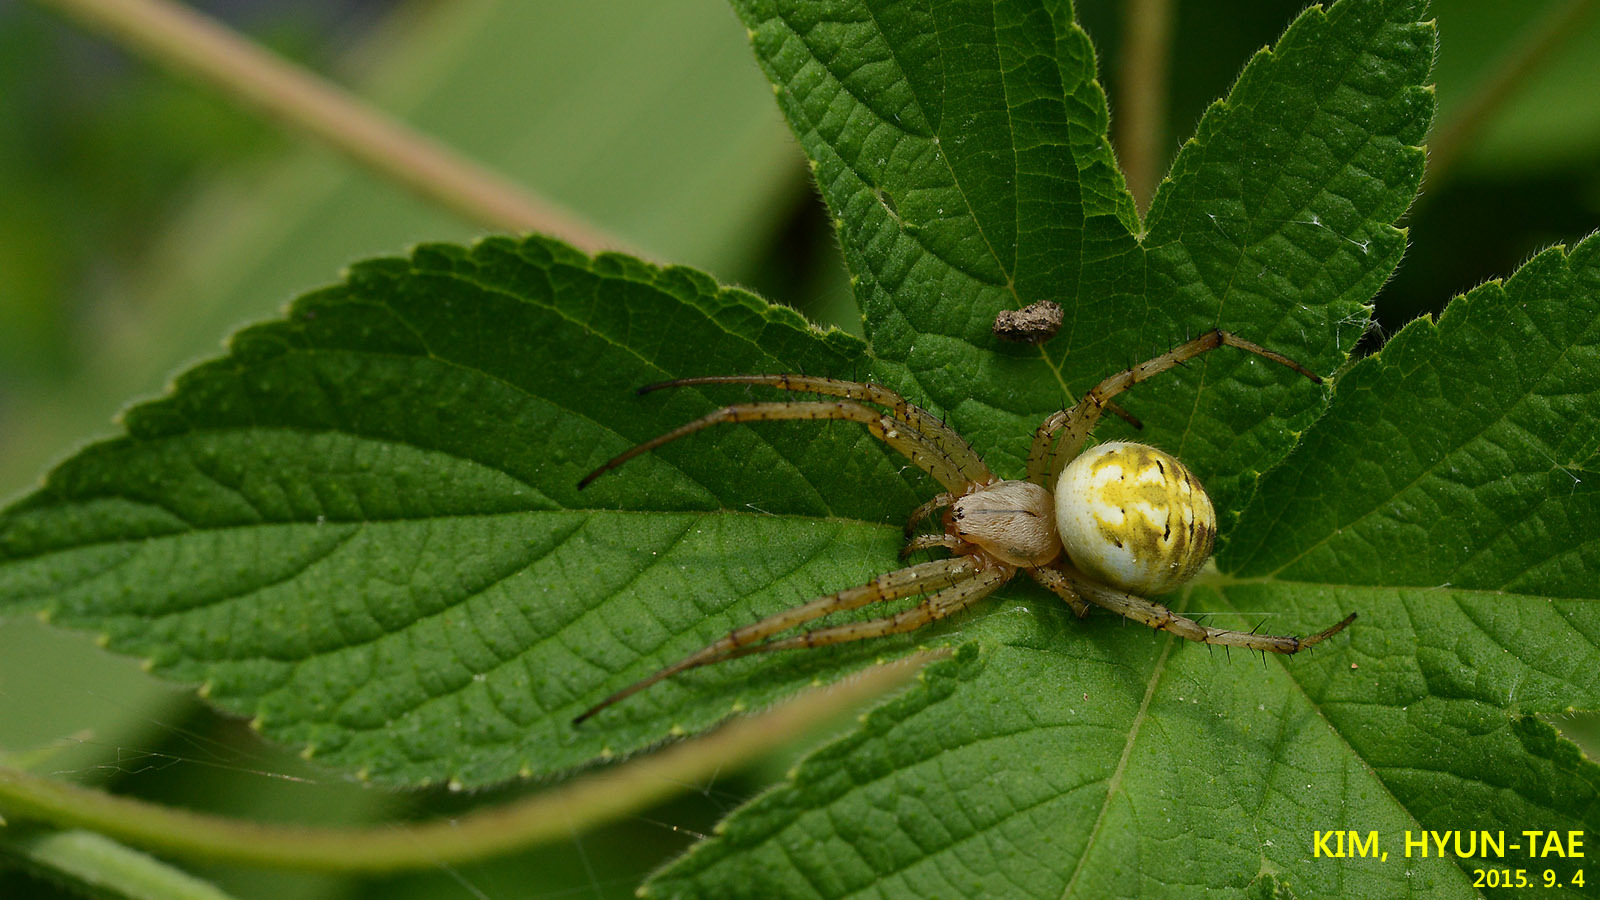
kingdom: Animalia
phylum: Arthropoda
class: Arachnida
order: Araneae
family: Araneidae
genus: Neoscona
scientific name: Neoscona adianta
